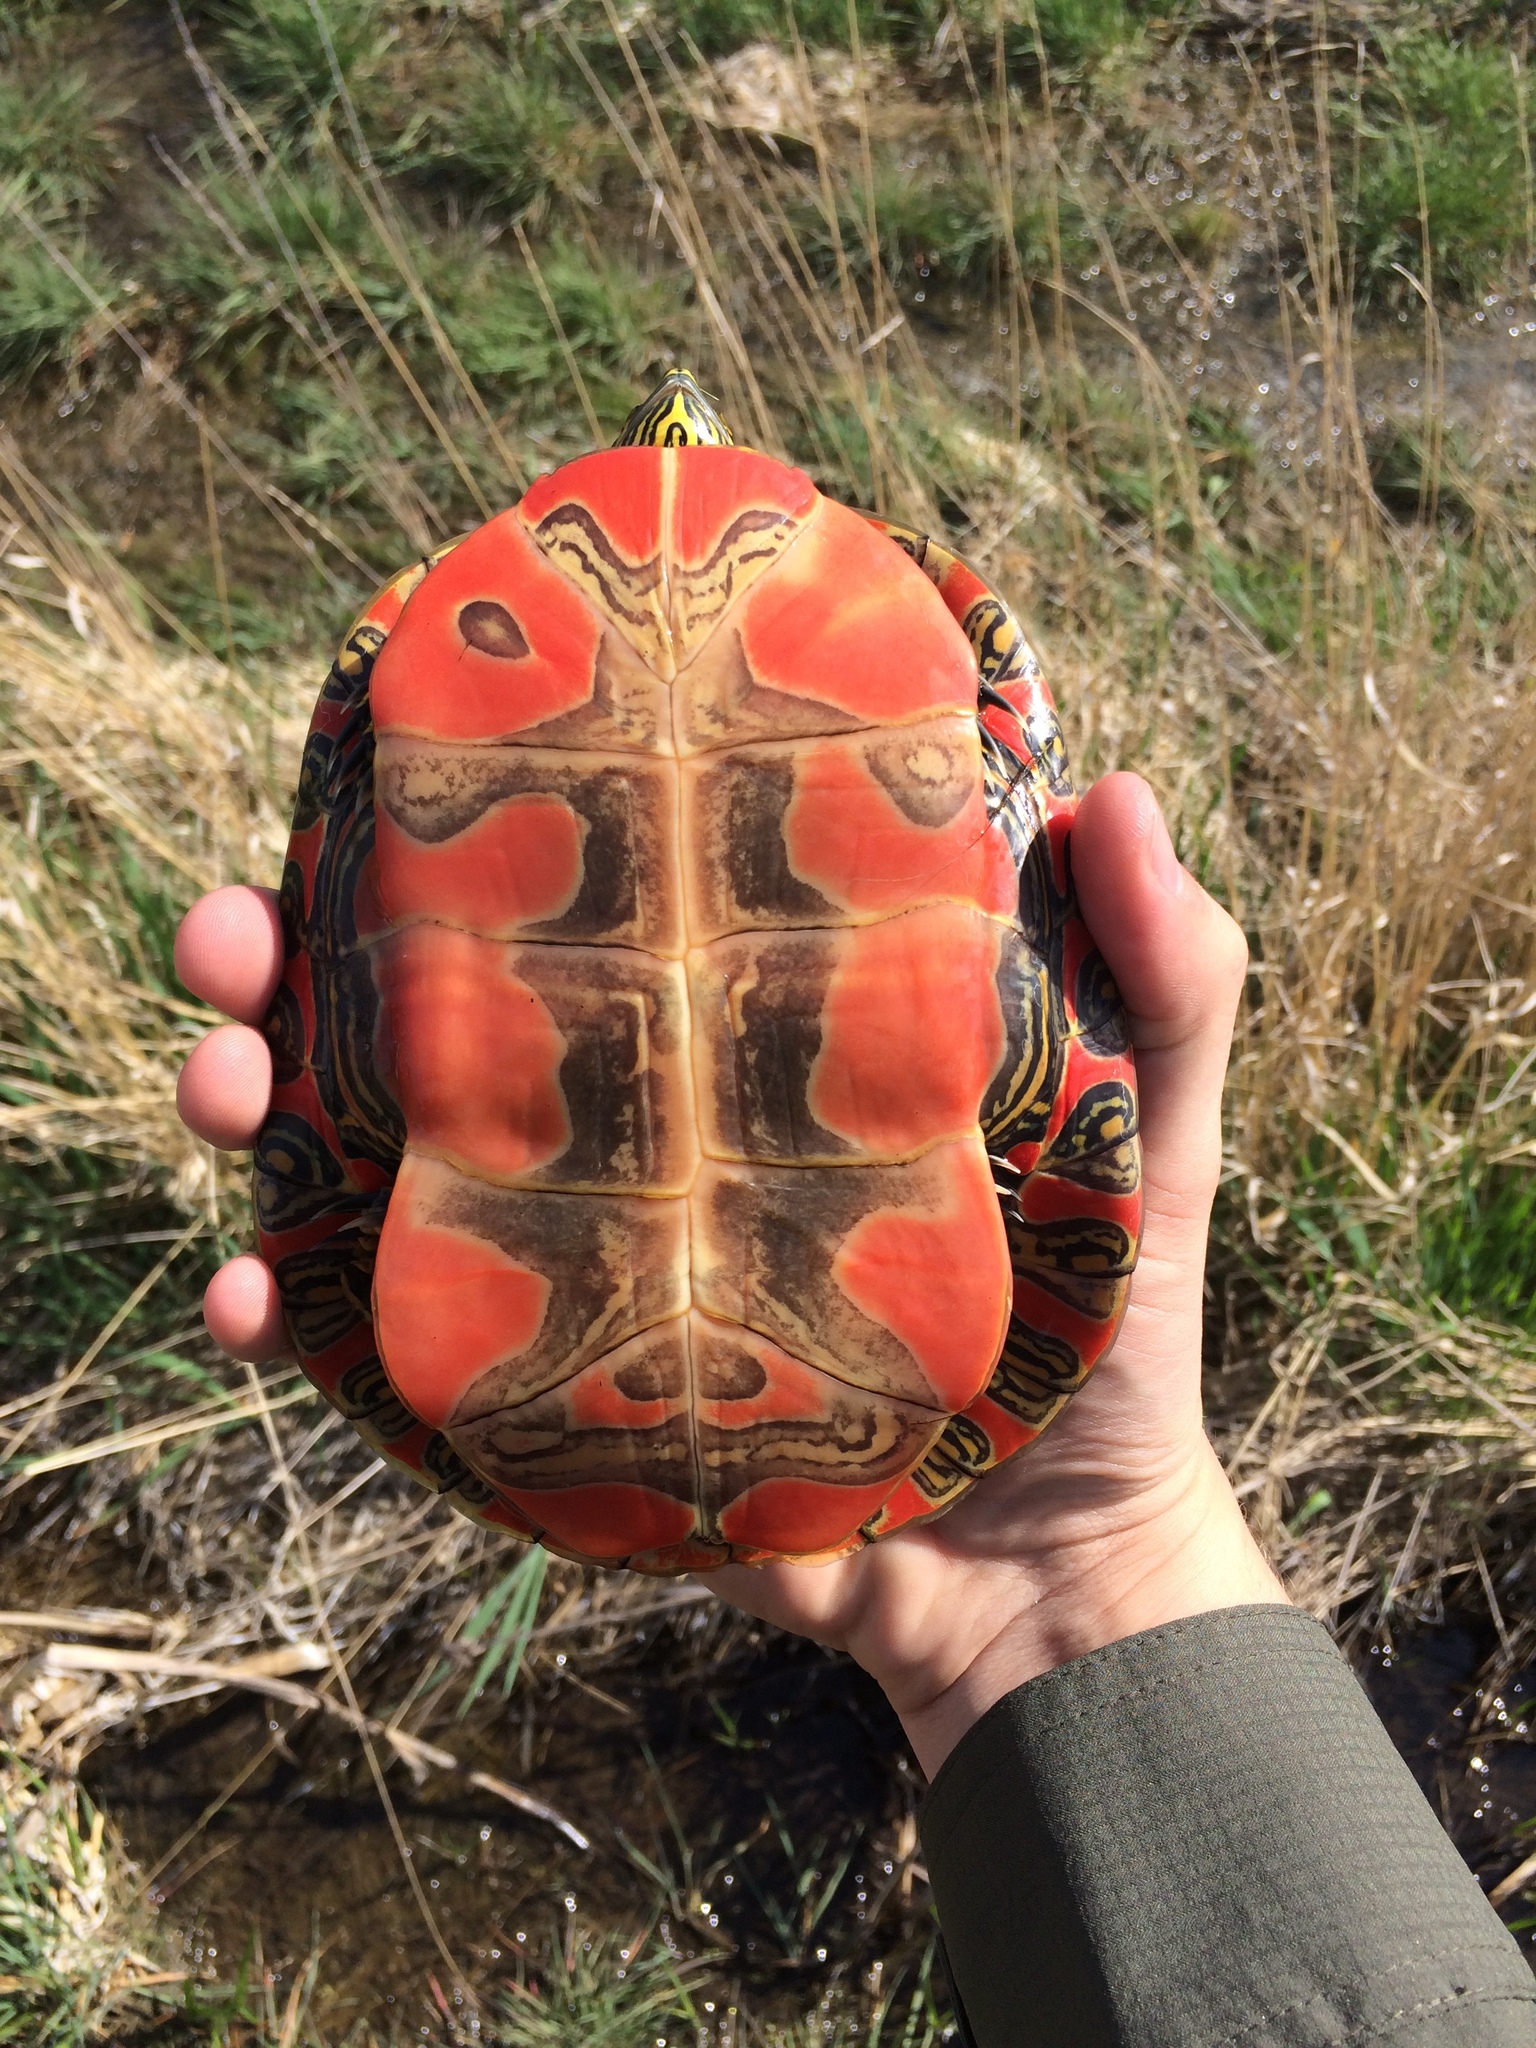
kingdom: Animalia
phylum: Chordata
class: Testudines
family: Emydidae
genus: Chrysemys
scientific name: Chrysemys picta
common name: Painted turtle
